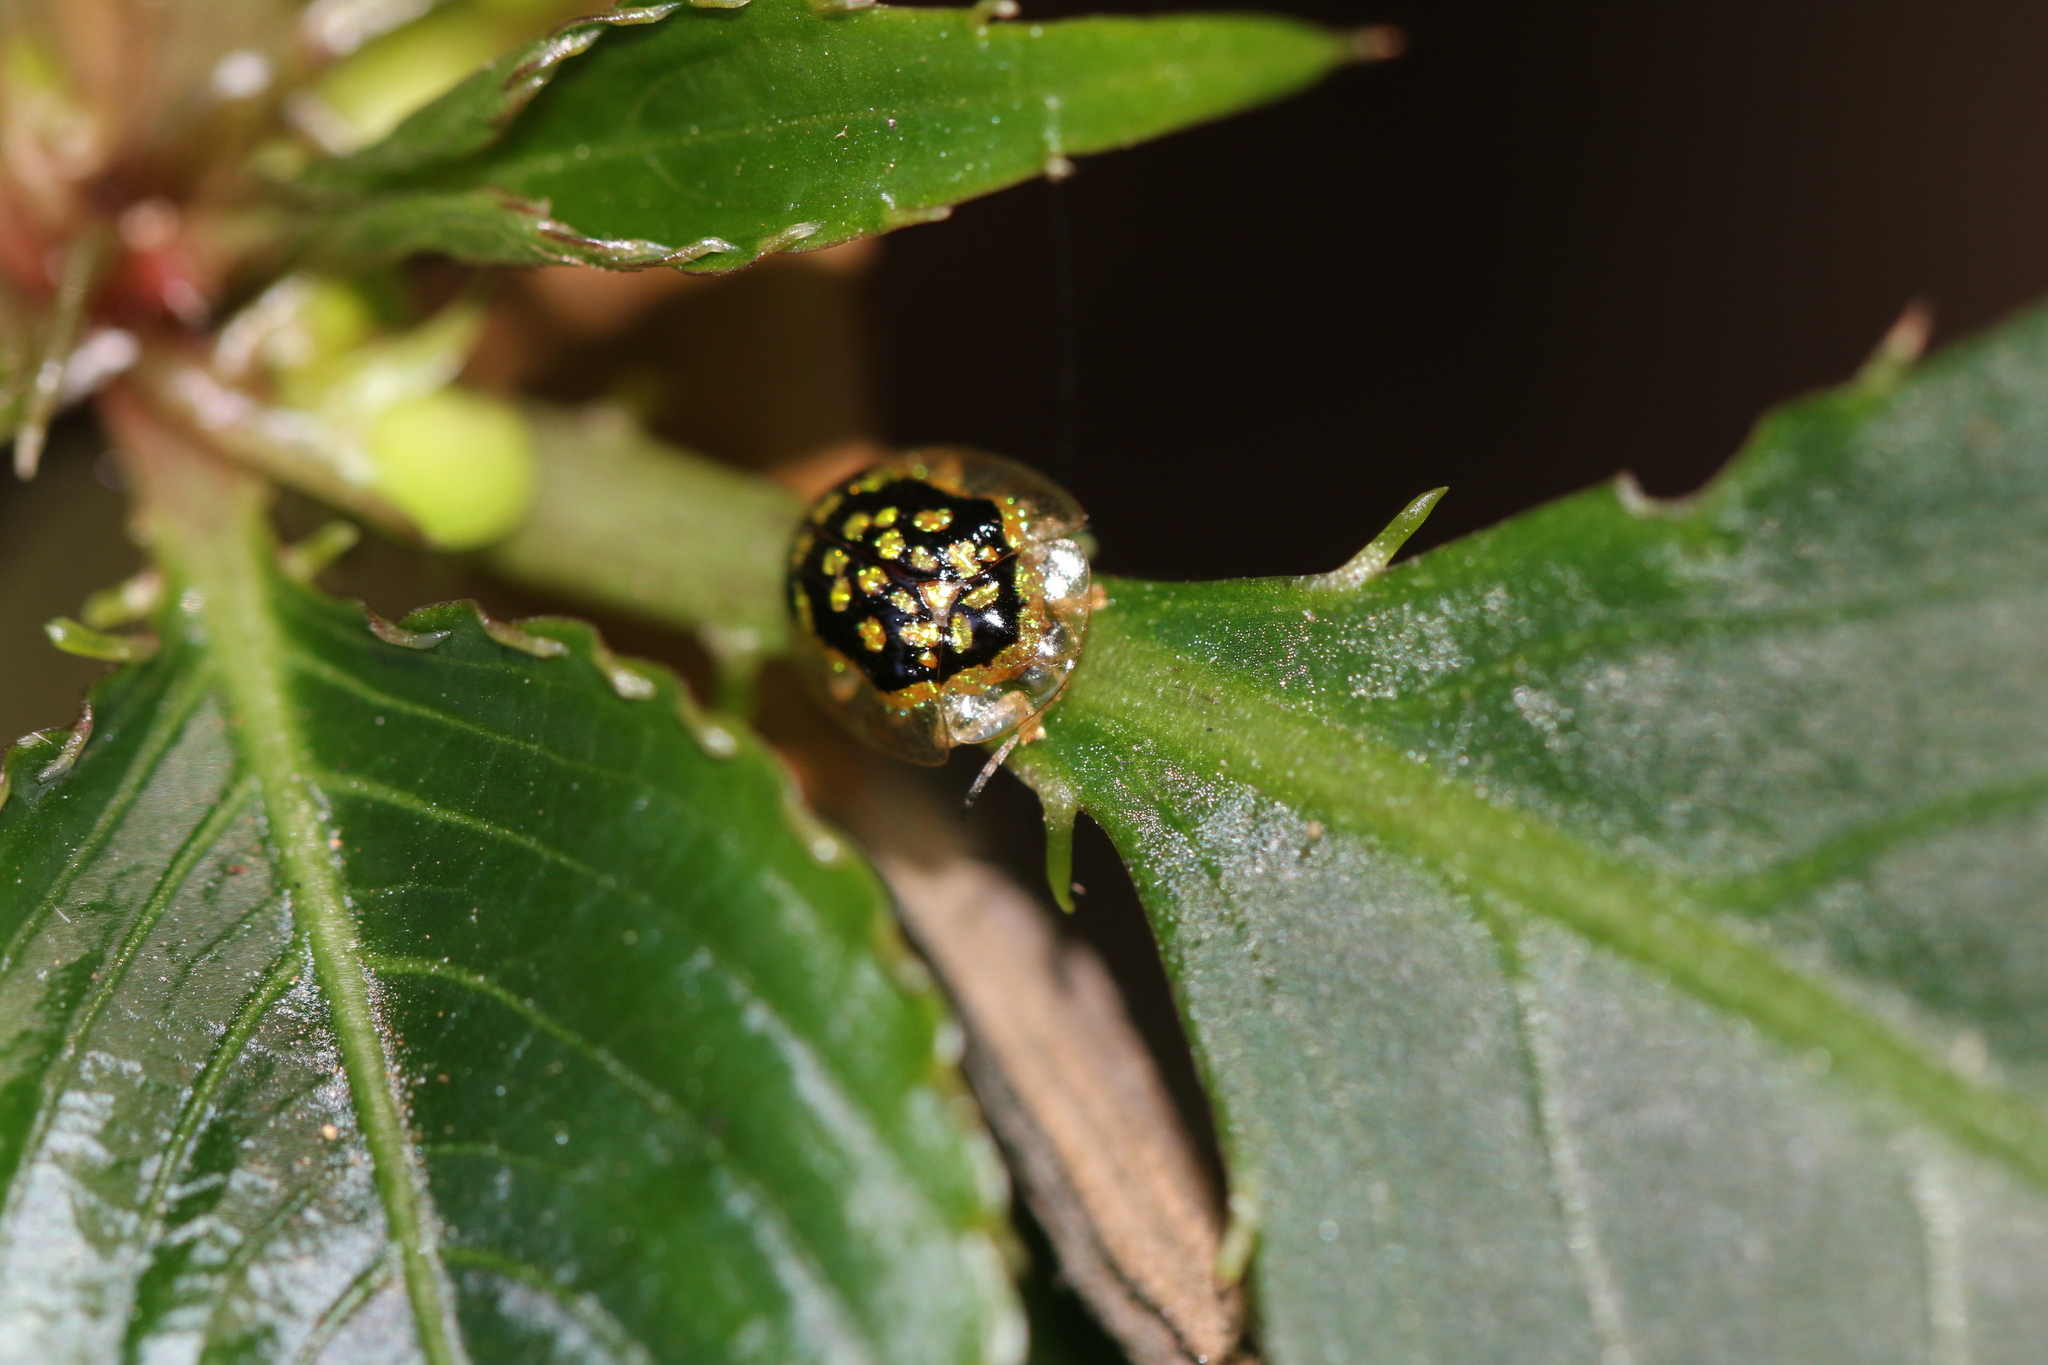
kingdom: Animalia
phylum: Arthropoda
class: Insecta
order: Coleoptera
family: Chrysomelidae
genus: Microctenochira
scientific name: Microctenochira brasiliensis
